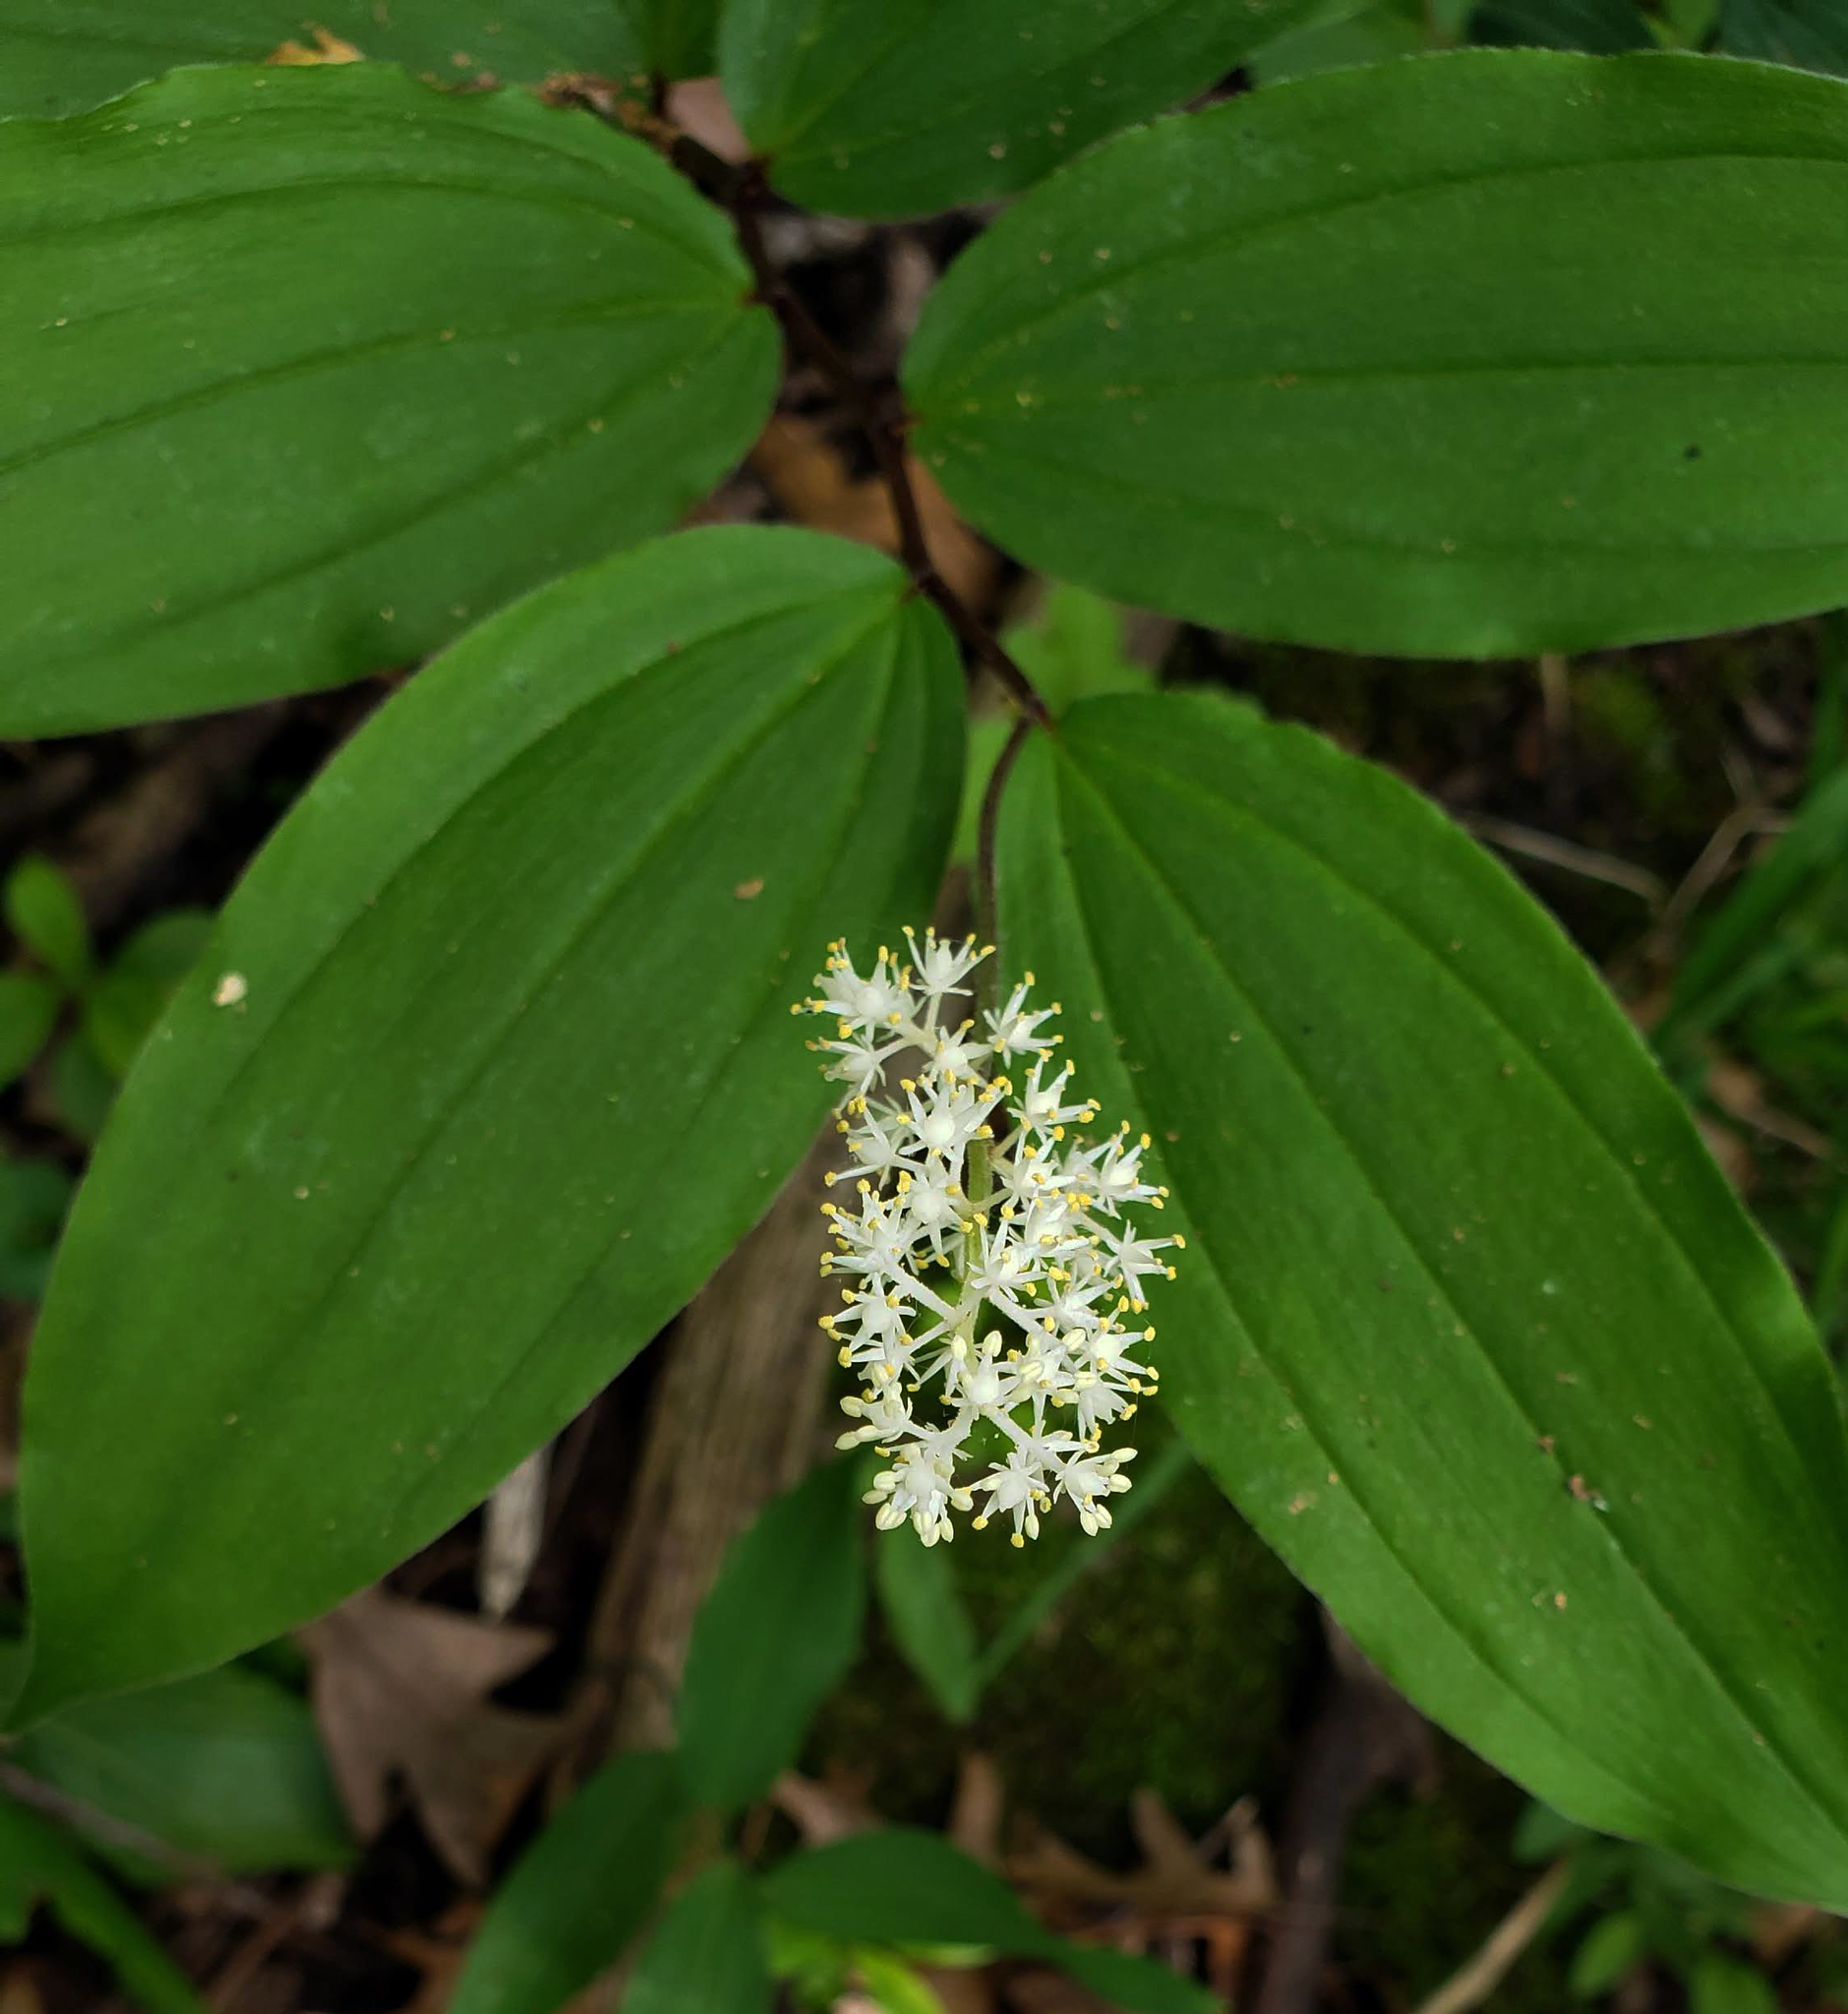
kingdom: Plantae
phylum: Tracheophyta
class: Liliopsida
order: Asparagales
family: Asparagaceae
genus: Maianthemum
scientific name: Maianthemum racemosum
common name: False spikenard
